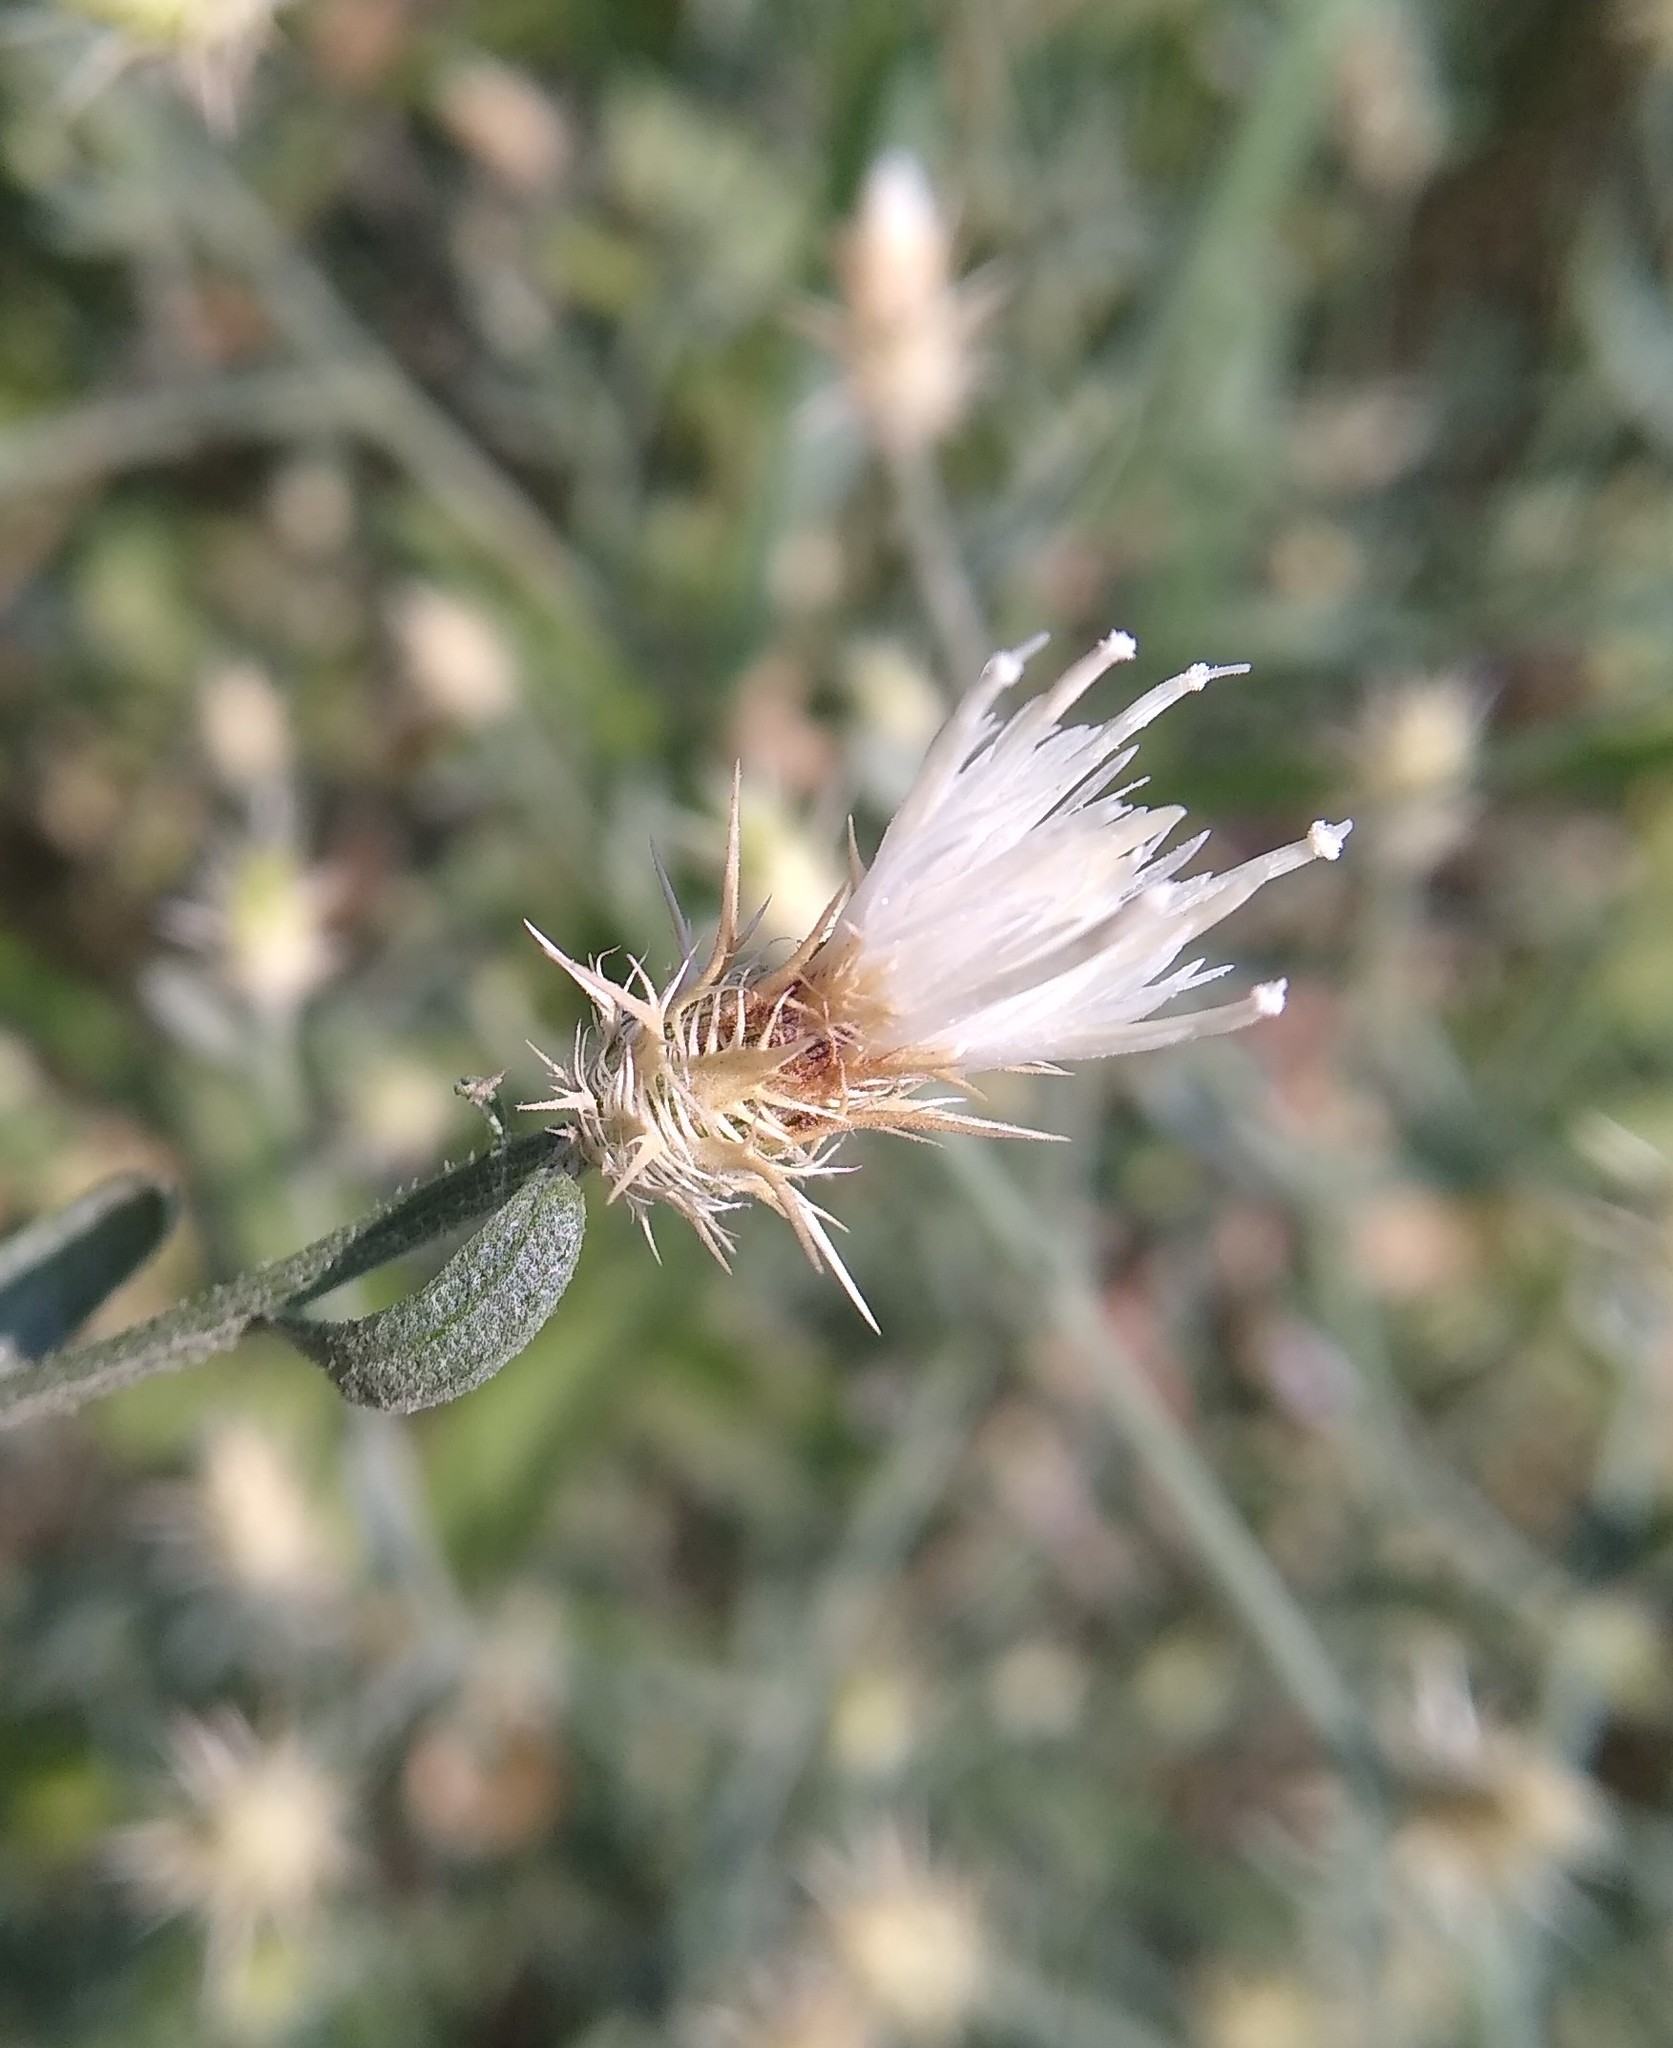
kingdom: Plantae
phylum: Tracheophyta
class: Magnoliopsida
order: Asterales
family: Asteraceae
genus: Centaurea
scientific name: Centaurea diffusa
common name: Diffuse knapweed
